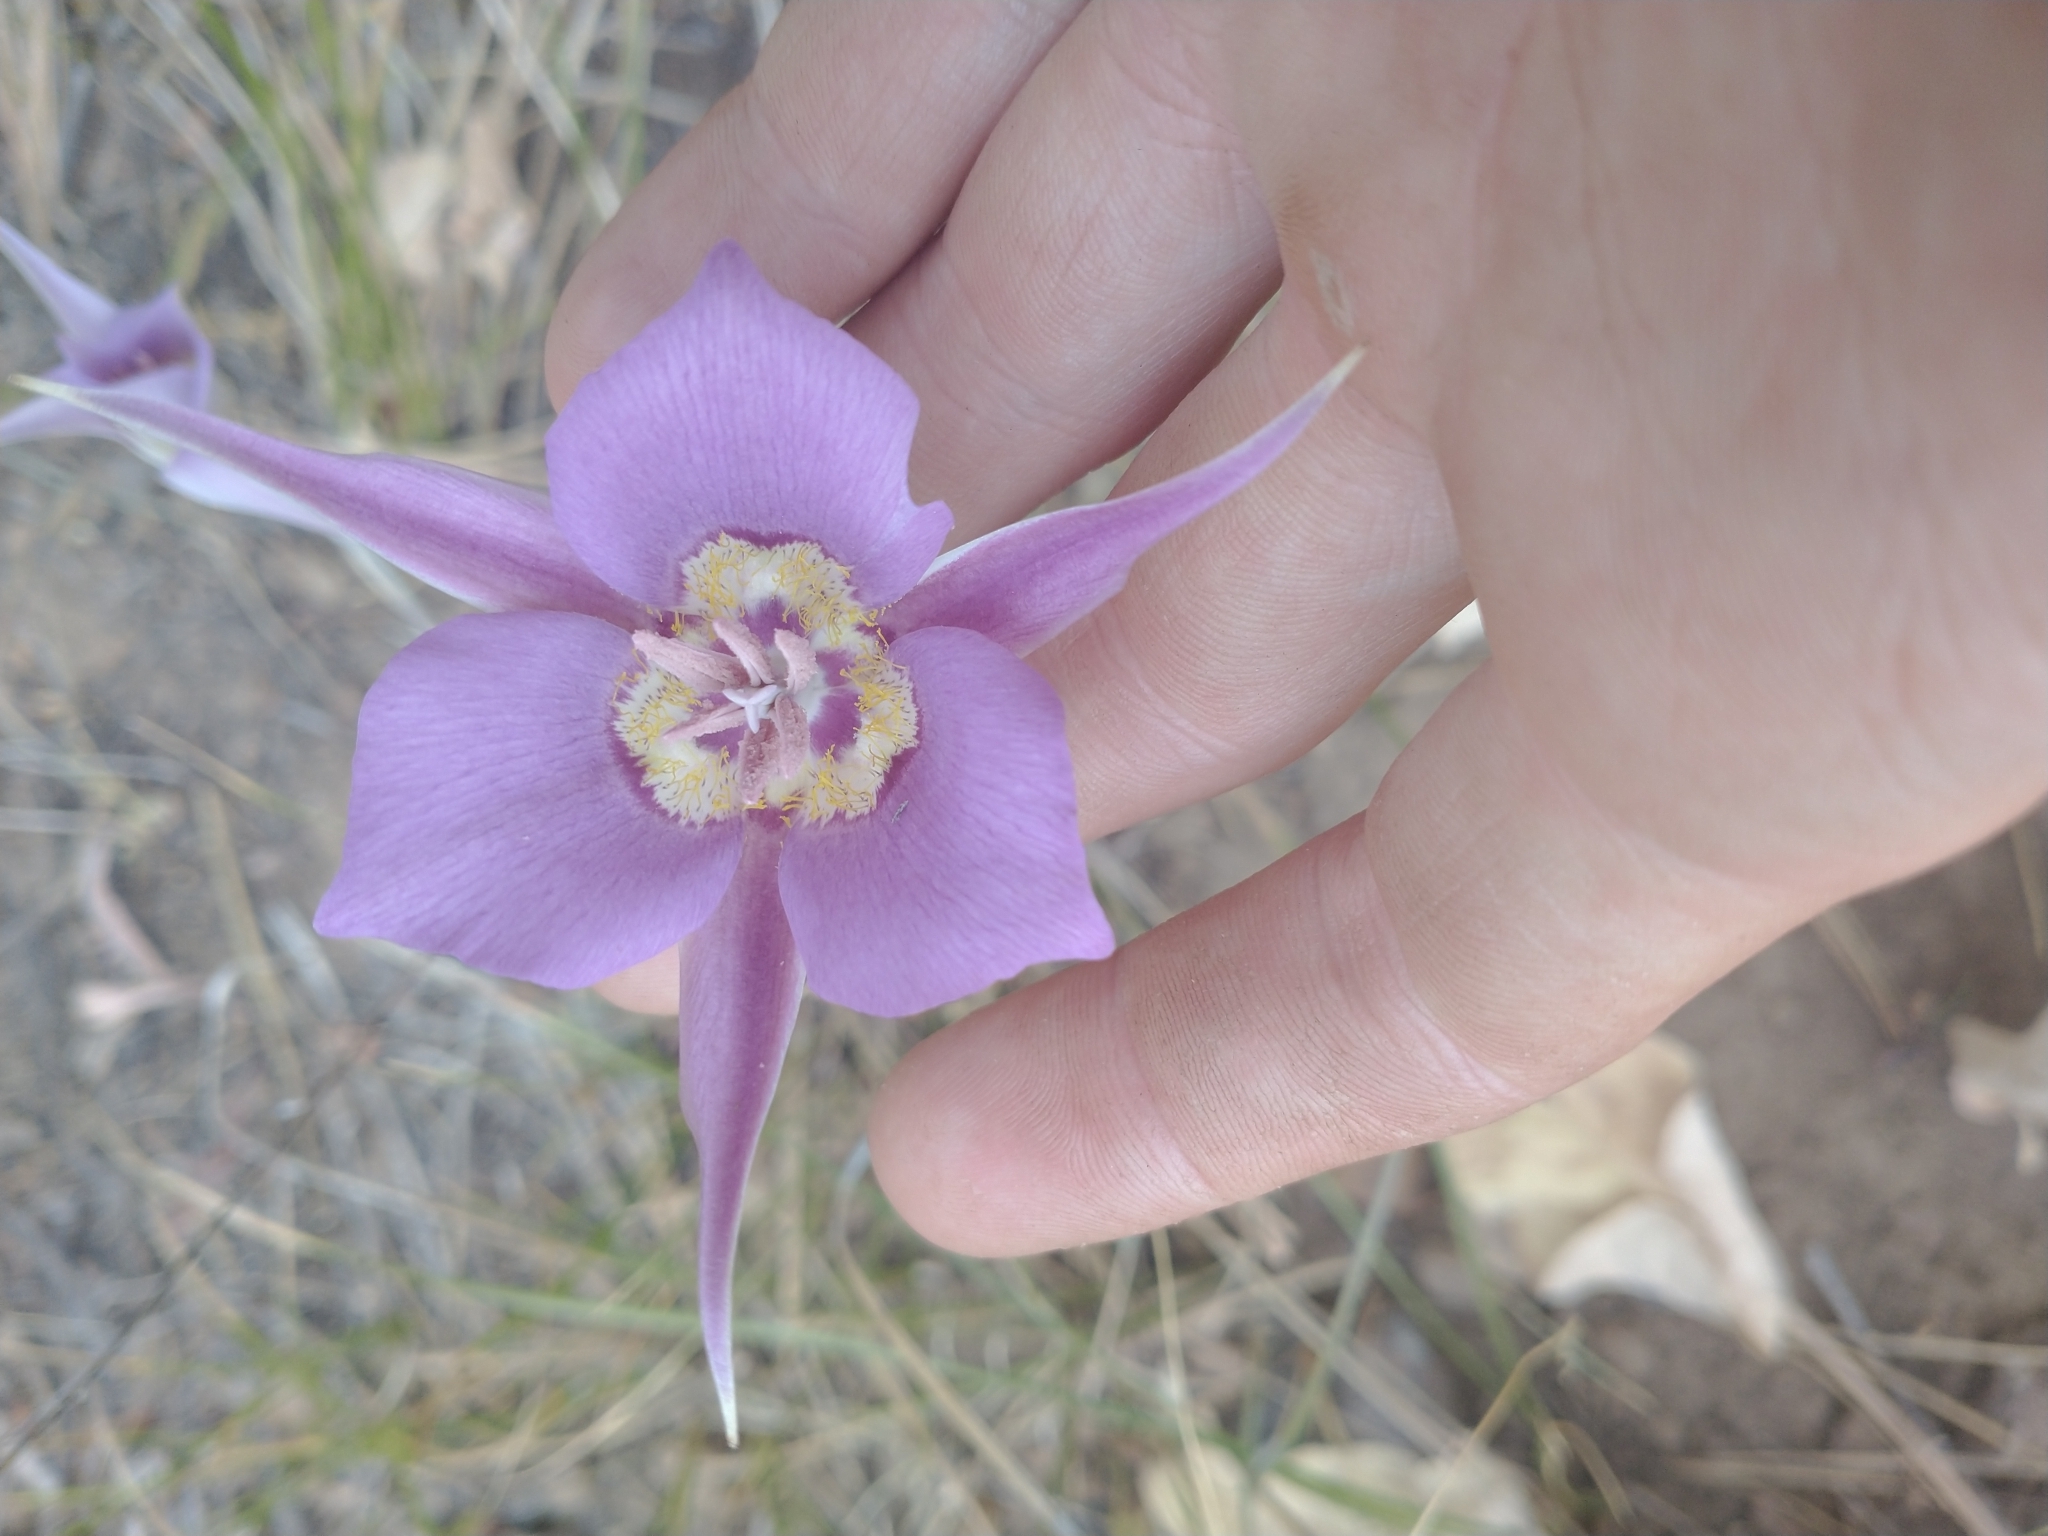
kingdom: Plantae
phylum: Tracheophyta
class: Liliopsida
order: Liliales
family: Liliaceae
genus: Calochortus
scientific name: Calochortus macrocarpus
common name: Green-band mariposa lily
